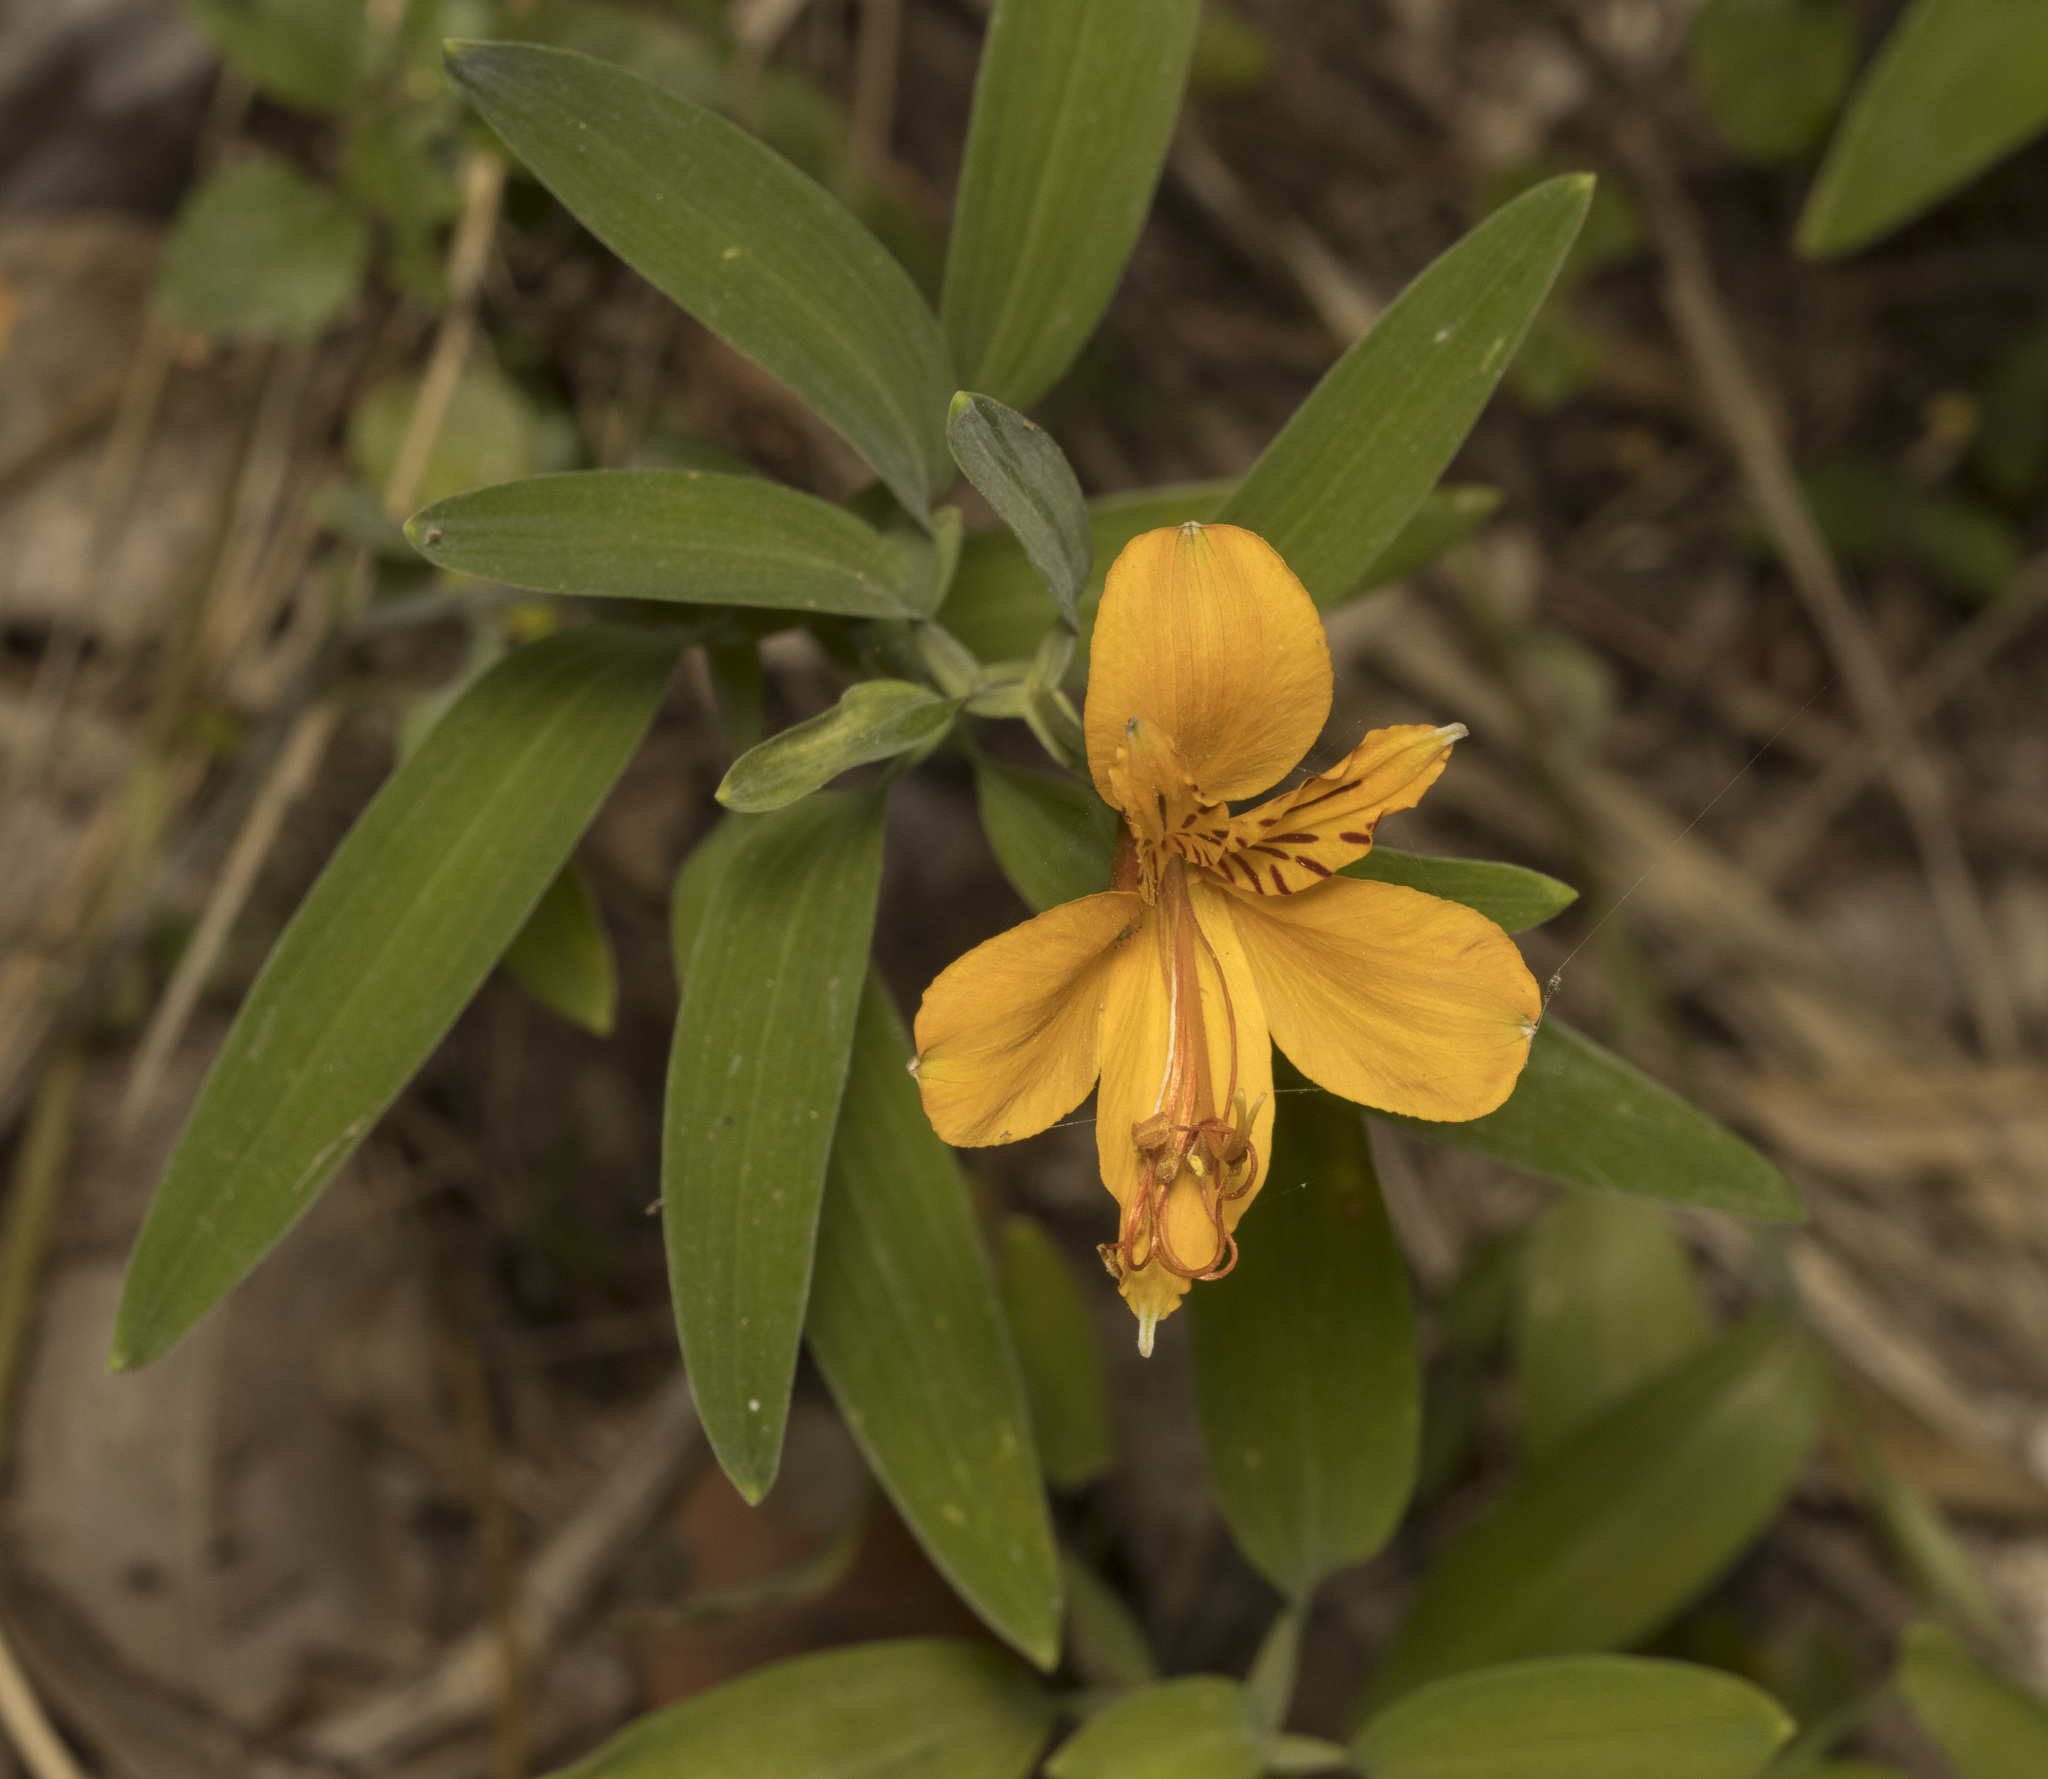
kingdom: Plantae
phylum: Tracheophyta
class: Liliopsida
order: Liliales
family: Alstroemeriaceae
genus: Alstroemeria
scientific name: Alstroemeria aurea
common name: Peruvian lily
